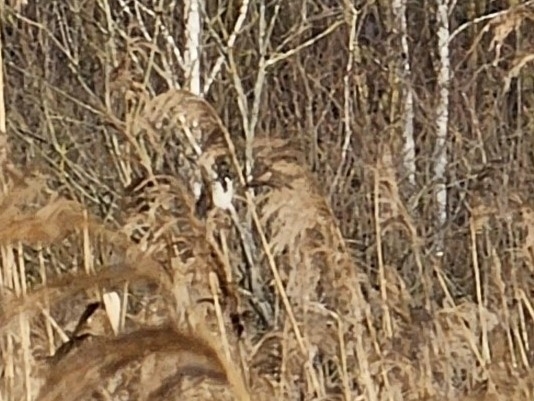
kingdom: Animalia
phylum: Chordata
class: Aves
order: Passeriformes
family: Emberizidae
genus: Emberiza
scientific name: Emberiza schoeniclus
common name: Reed bunting
